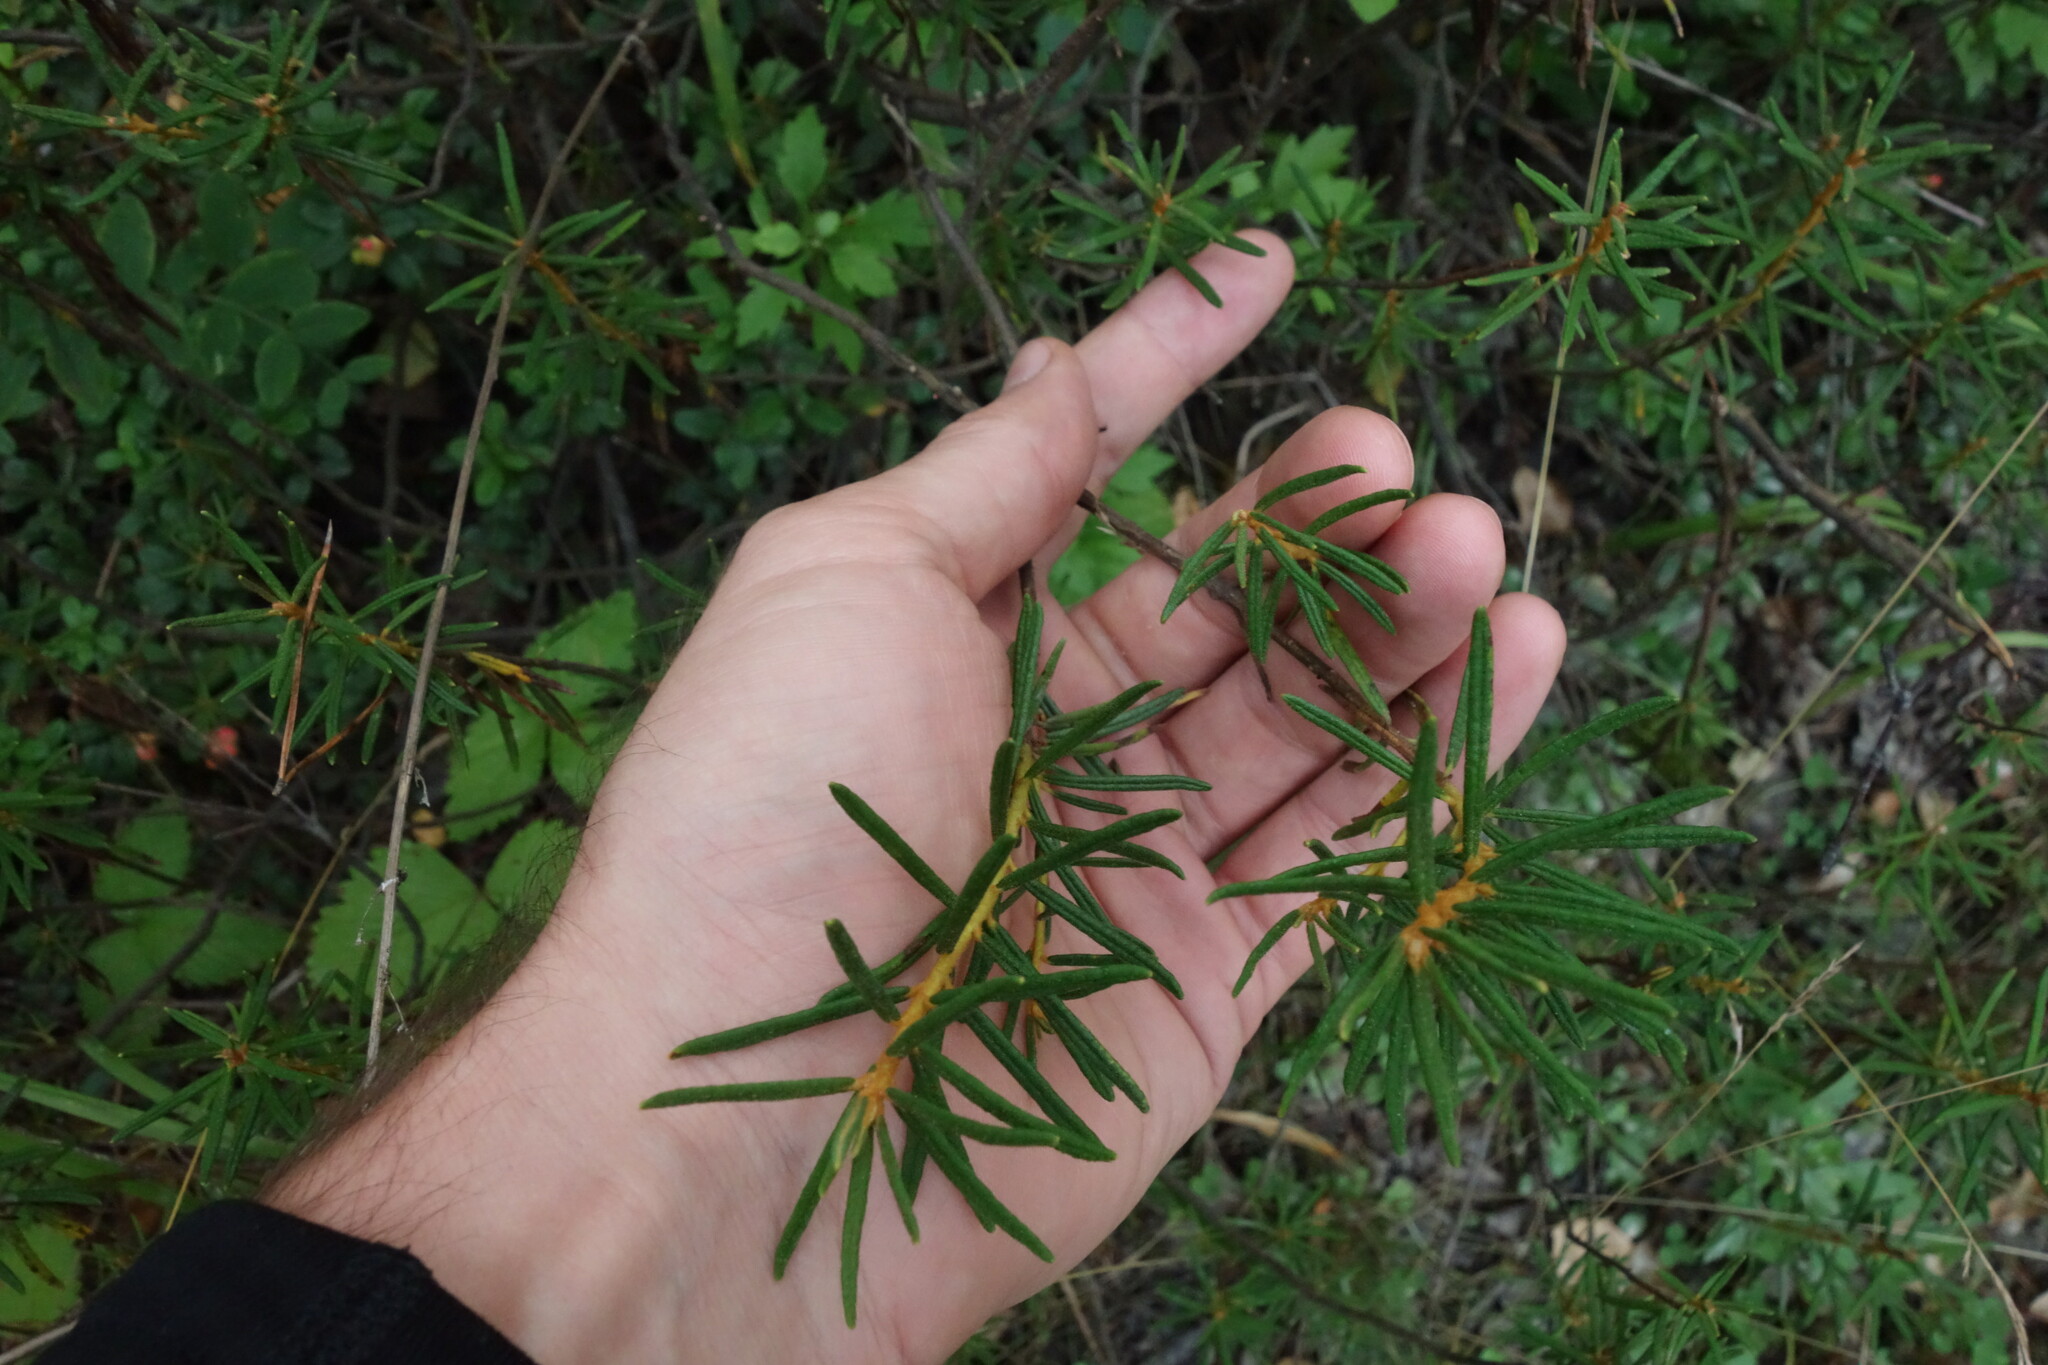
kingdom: Plantae
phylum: Tracheophyta
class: Magnoliopsida
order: Ericales
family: Ericaceae
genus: Rhododendron
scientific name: Rhododendron tomentosum
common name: Marsh labrador tea
